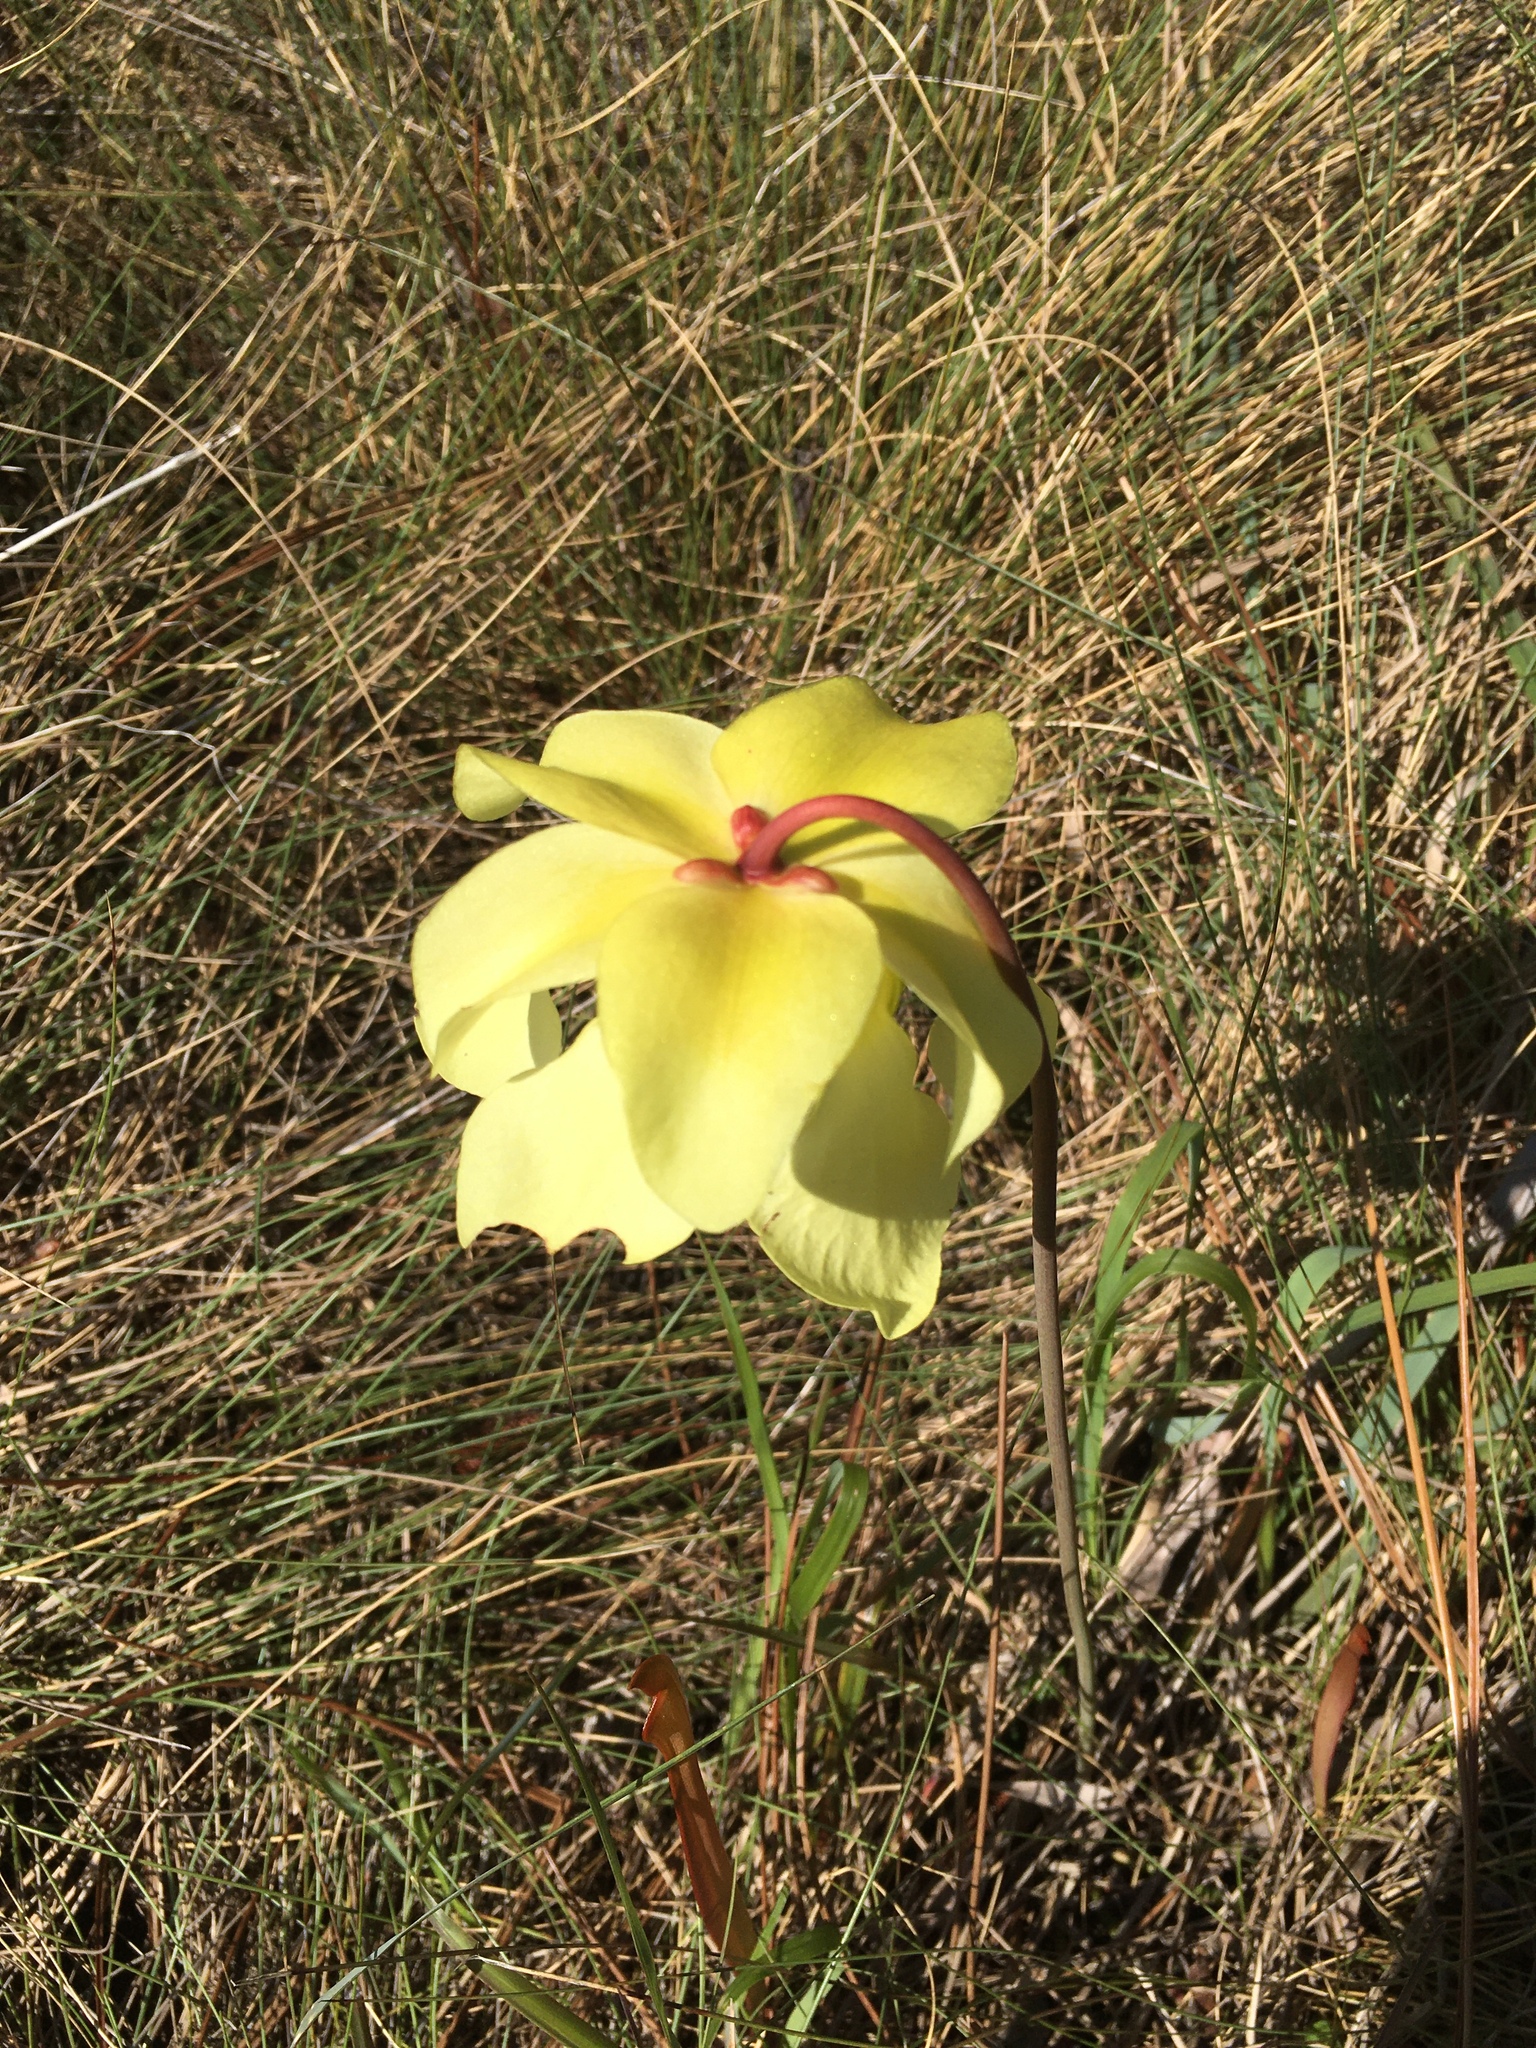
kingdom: Plantae
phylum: Tracheophyta
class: Magnoliopsida
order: Ericales
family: Sarraceniaceae
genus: Sarracenia
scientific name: Sarracenia alata
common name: Yellow trumpets
